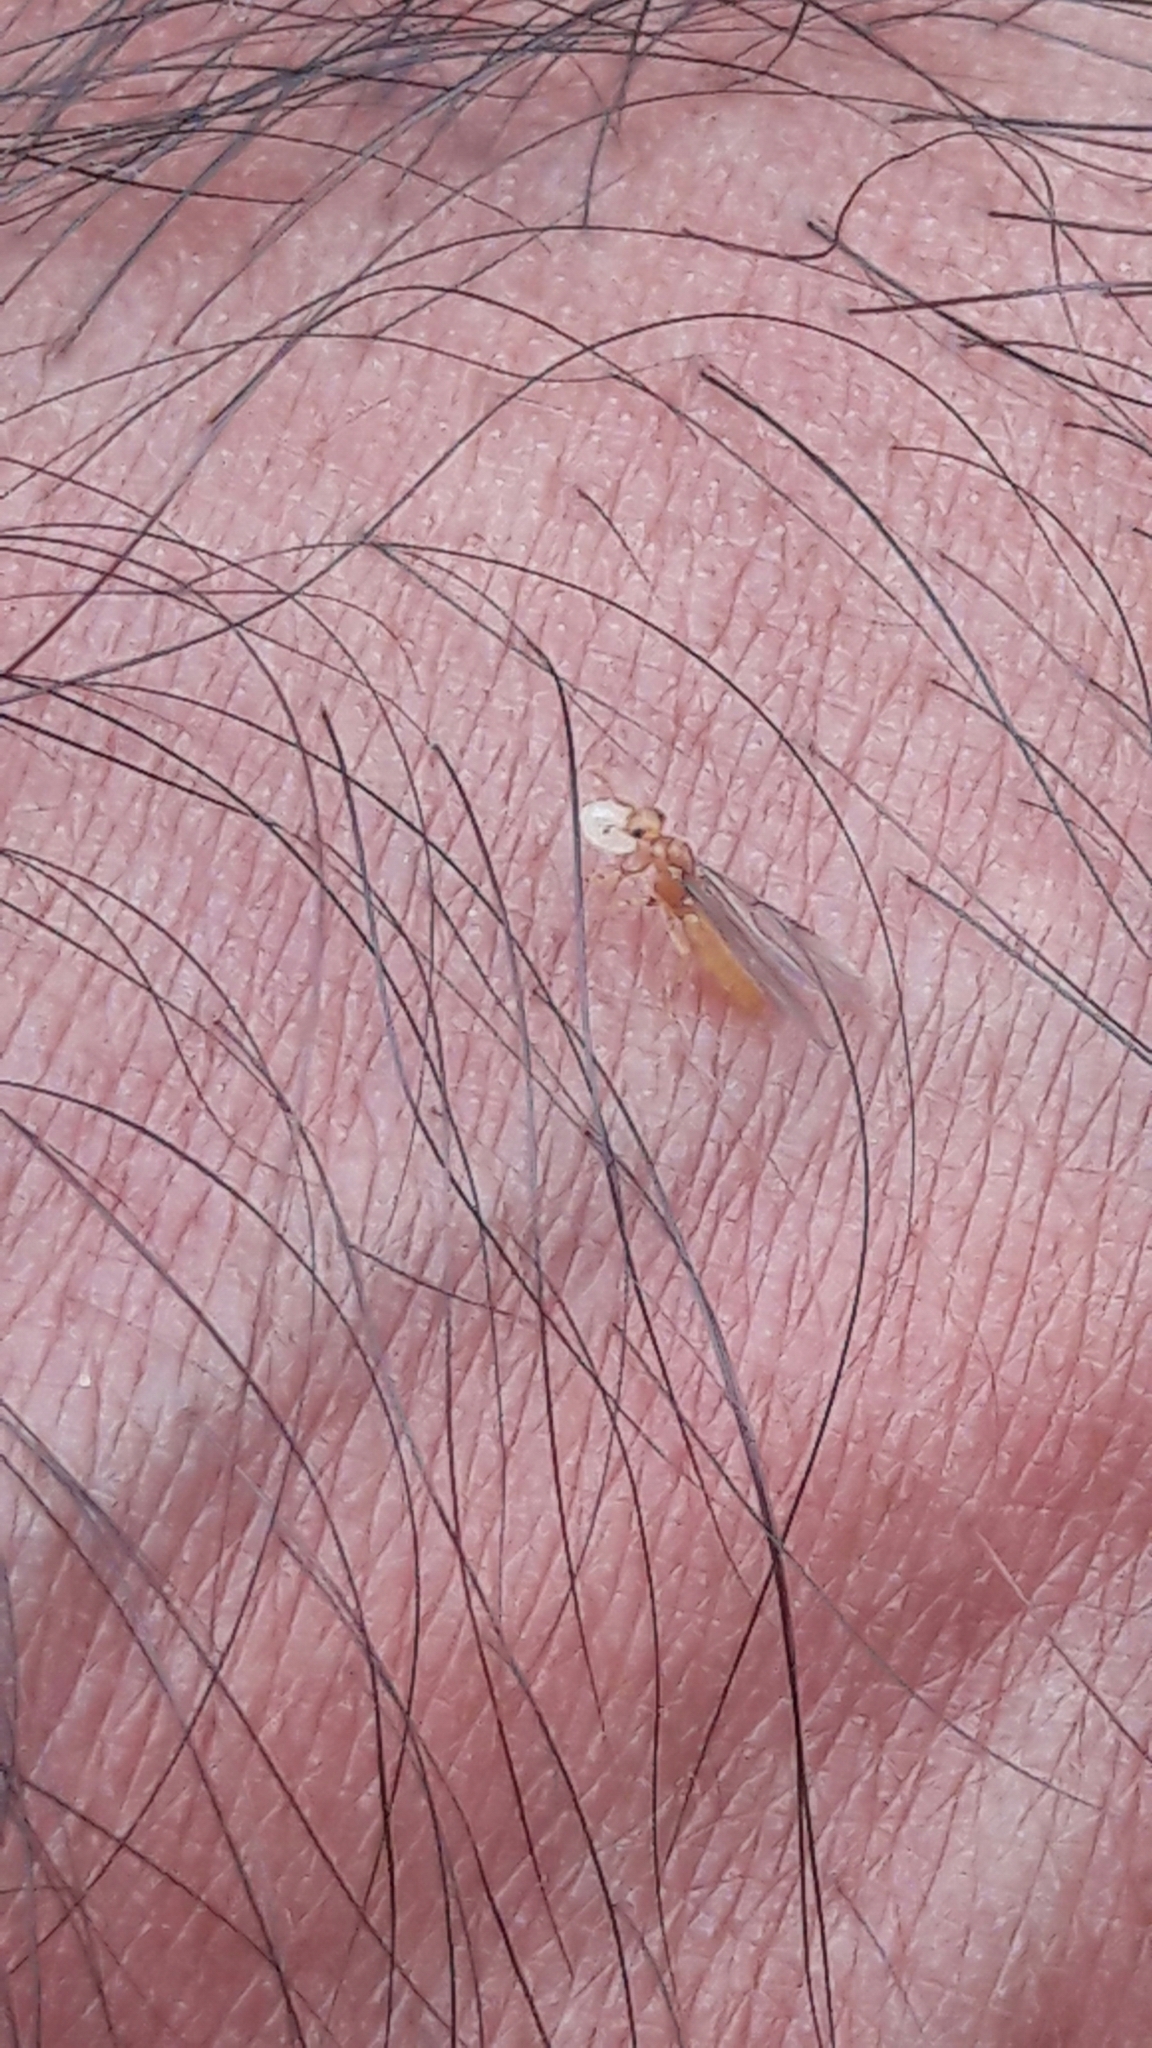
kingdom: Animalia
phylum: Arthropoda
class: Insecta
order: Hymenoptera
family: Formicidae
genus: Acropyga
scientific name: Acropyga
